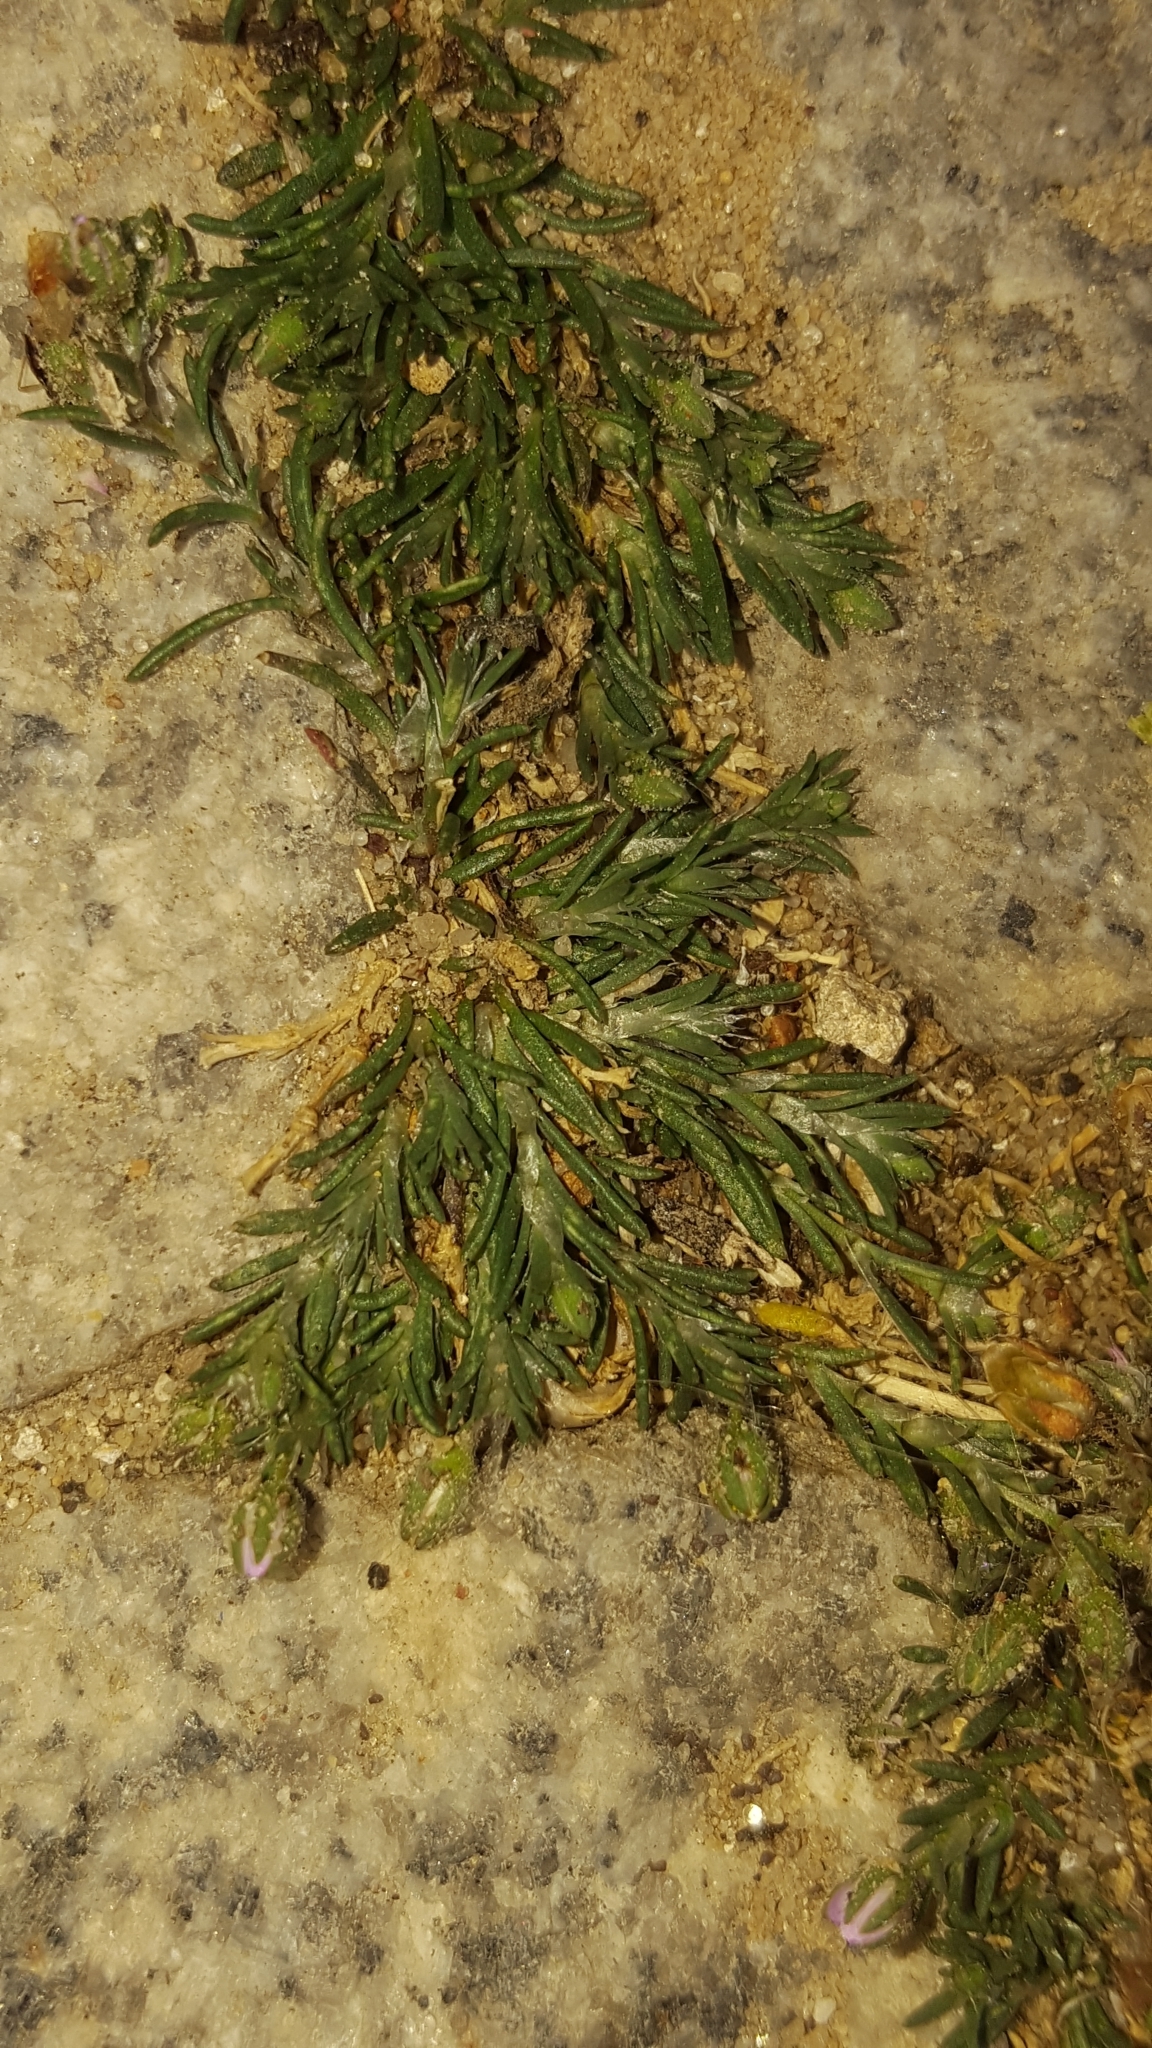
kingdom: Plantae
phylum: Tracheophyta
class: Magnoliopsida
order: Caryophyllales
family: Caryophyllaceae
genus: Spergularia
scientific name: Spergularia rubra
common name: Red sand-spurrey
